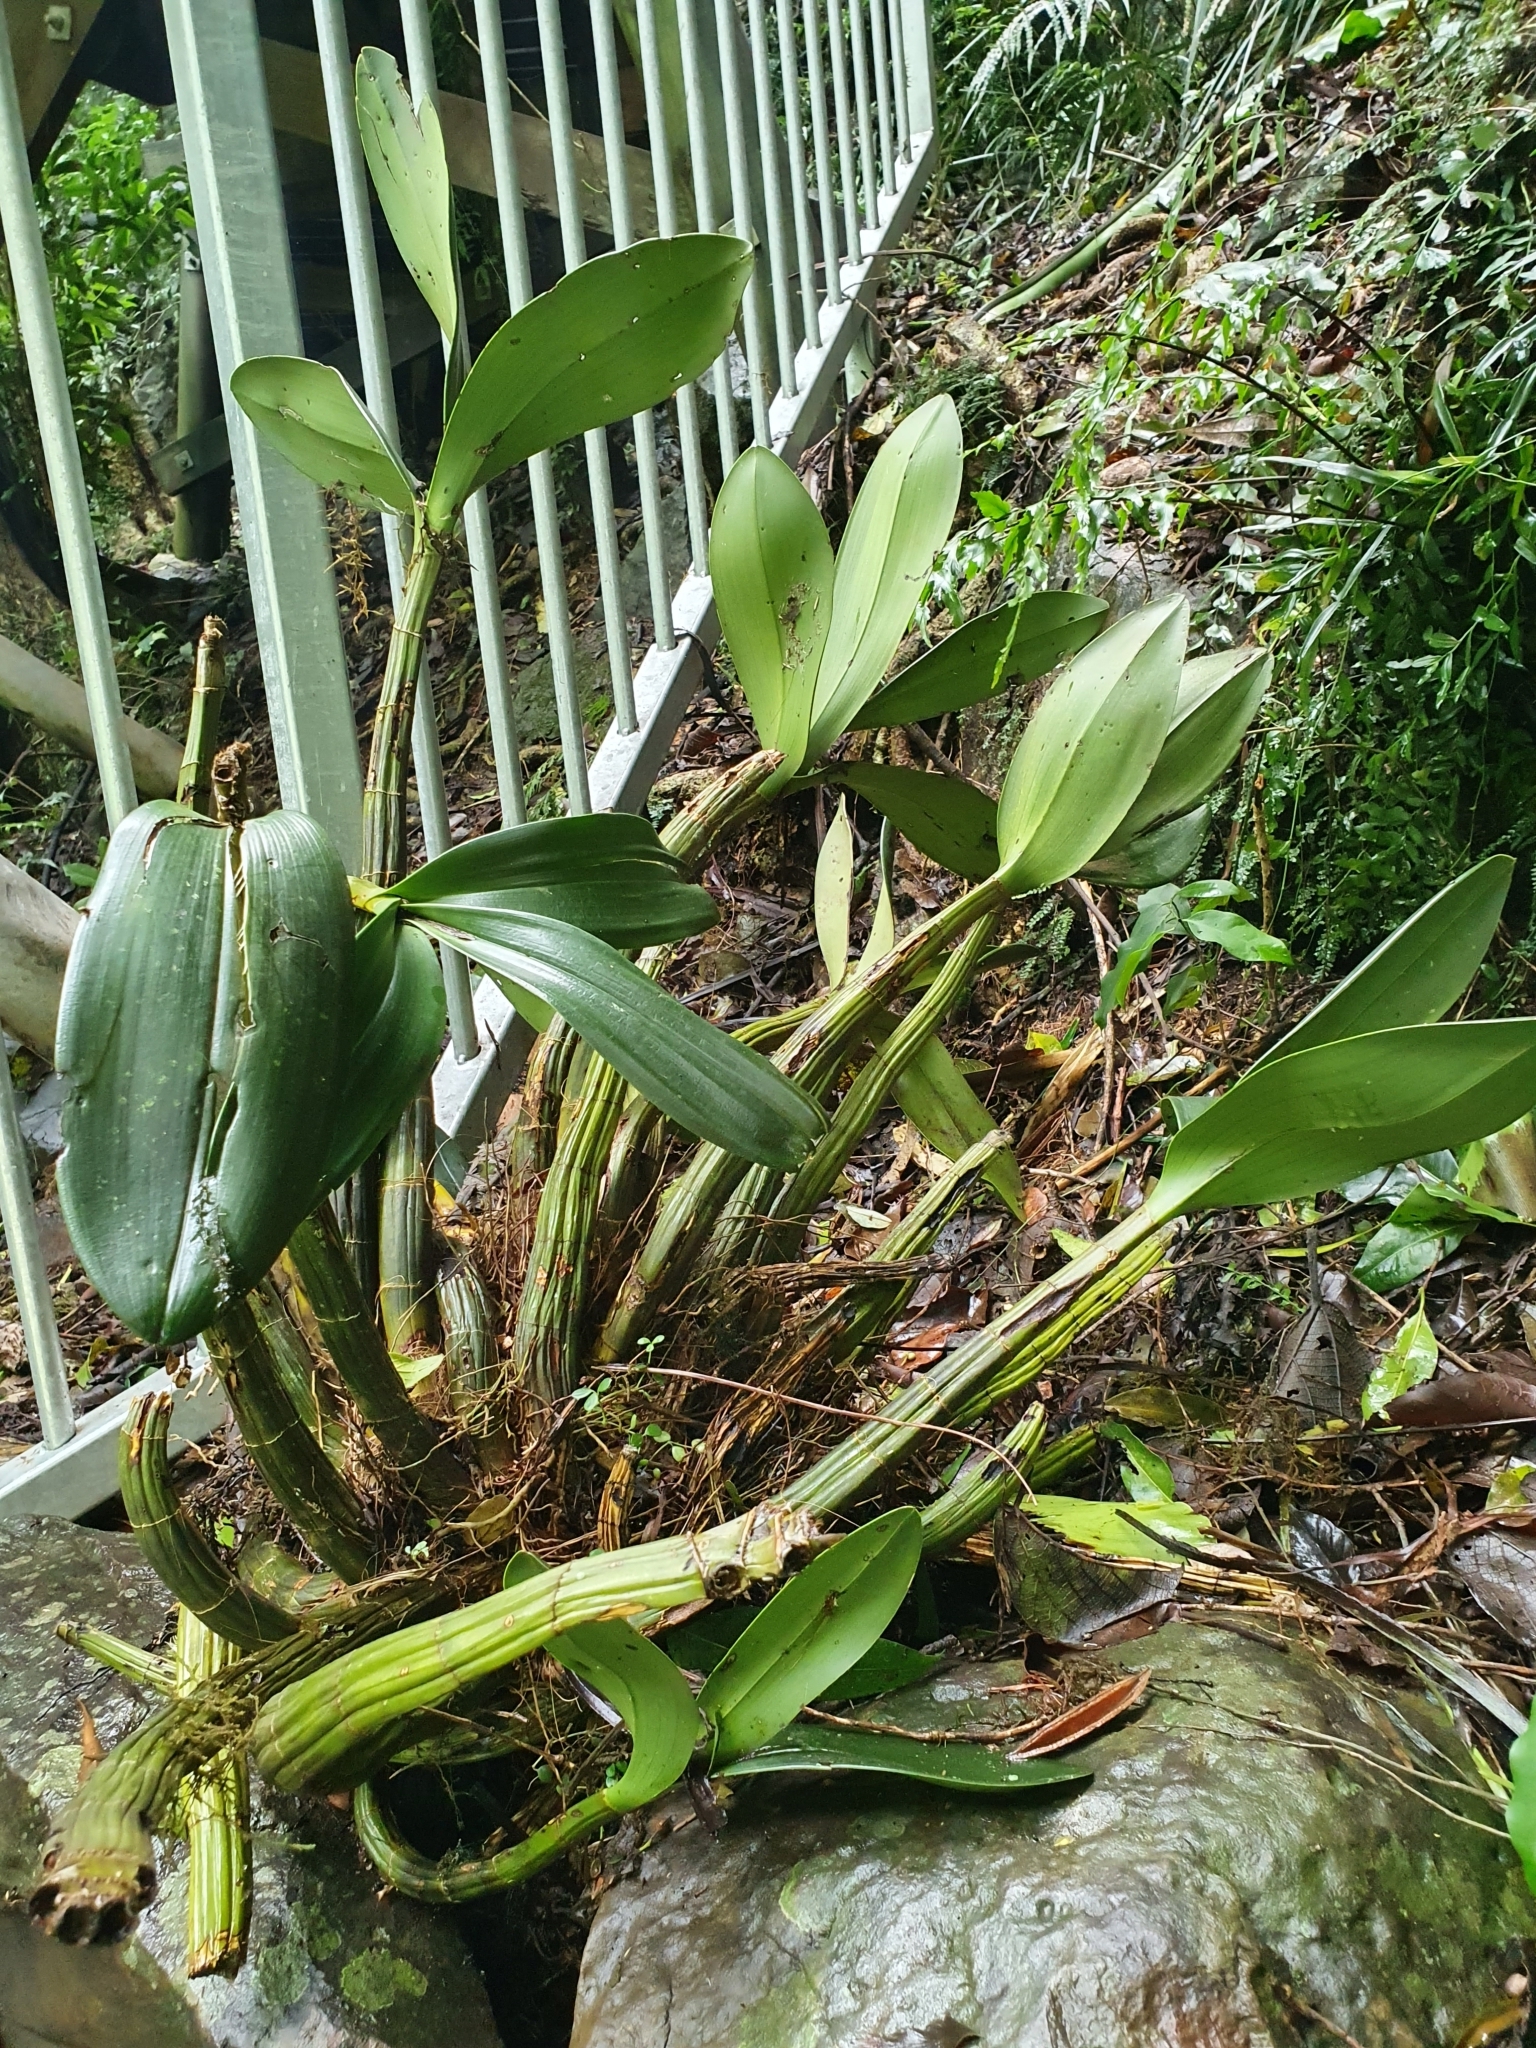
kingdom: Plantae
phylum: Tracheophyta
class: Liliopsida
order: Asparagales
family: Orchidaceae
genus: Dendrobium
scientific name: Dendrobium speciosum
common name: Rock-lily
